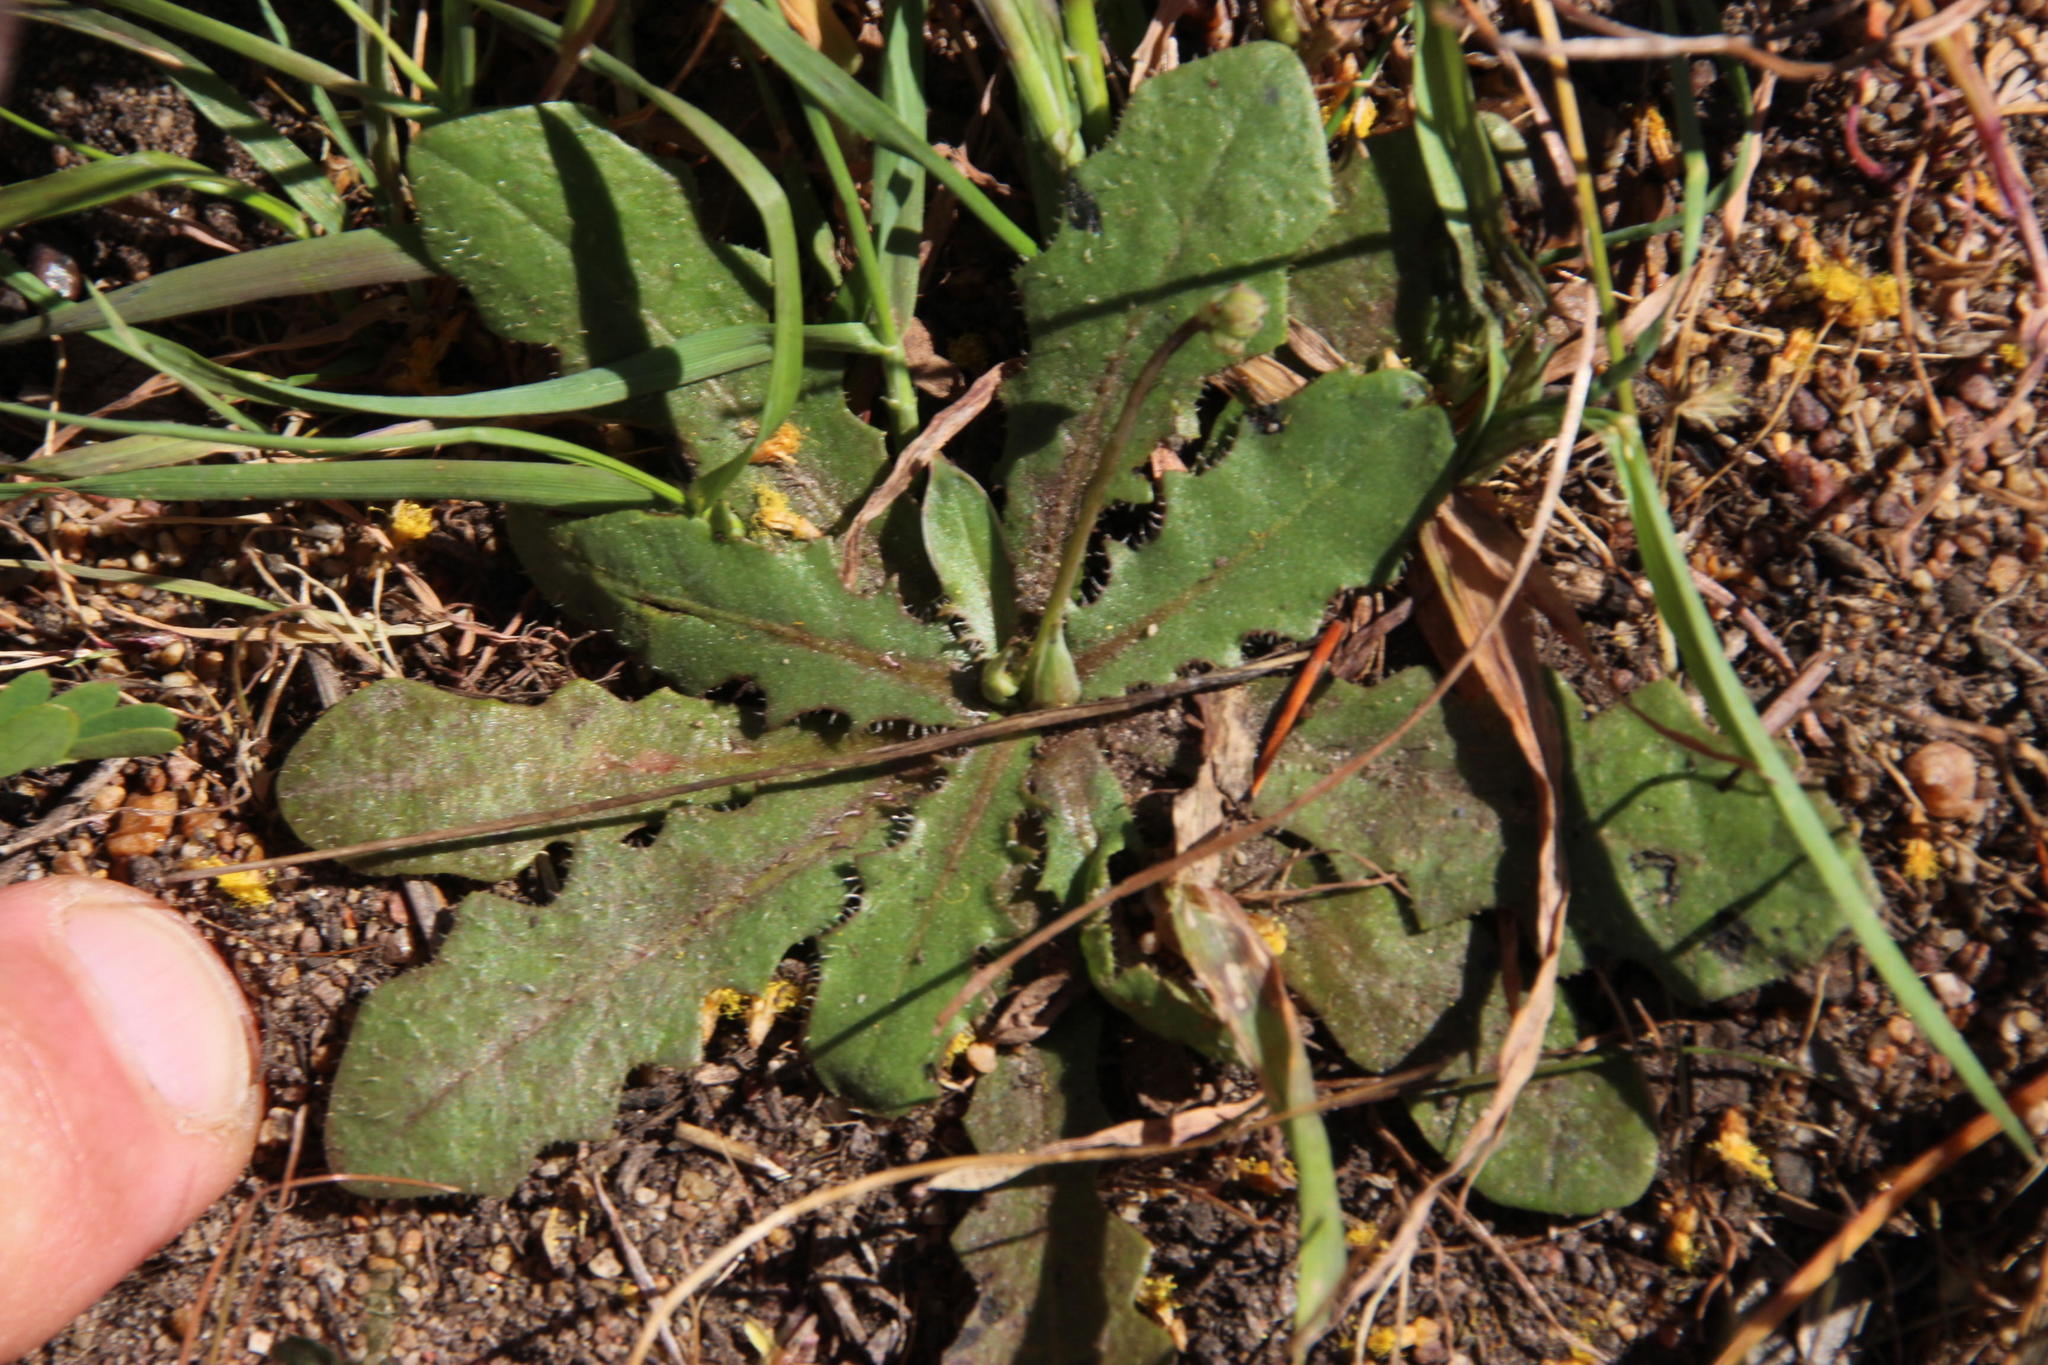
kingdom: Plantae
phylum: Tracheophyta
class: Magnoliopsida
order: Asterales
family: Asteraceae
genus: Hypochaeris
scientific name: Hypochaeris glabra
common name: Smooth catsear
